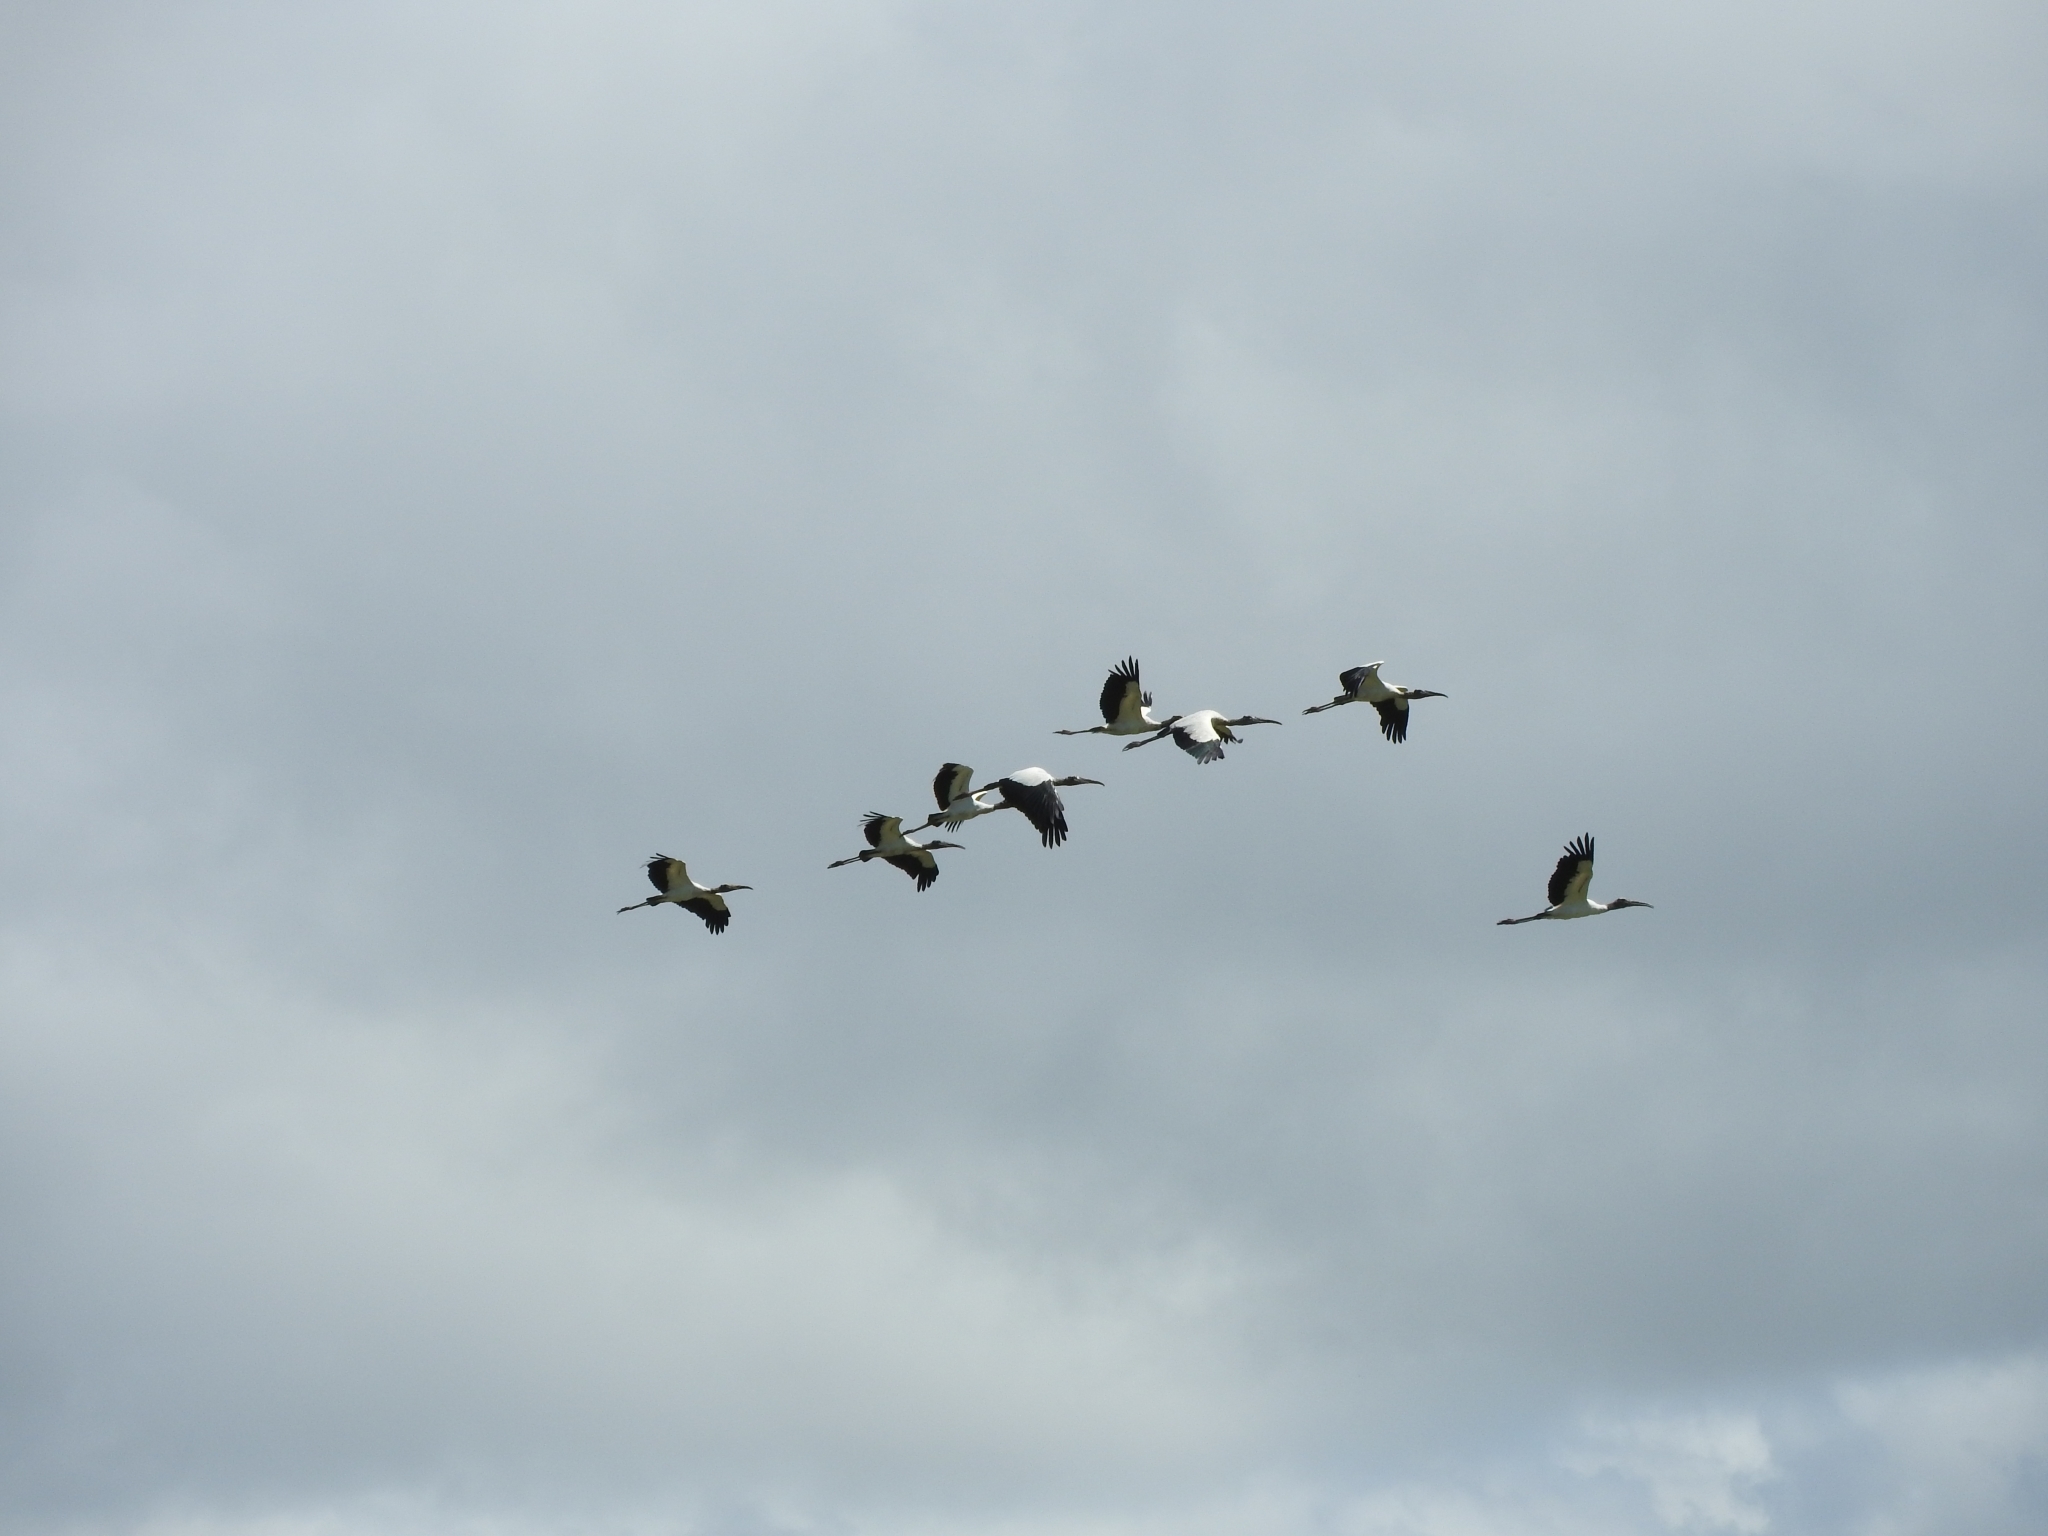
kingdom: Animalia
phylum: Chordata
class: Aves
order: Ciconiiformes
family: Ciconiidae
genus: Mycteria
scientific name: Mycteria americana
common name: Wood stork
